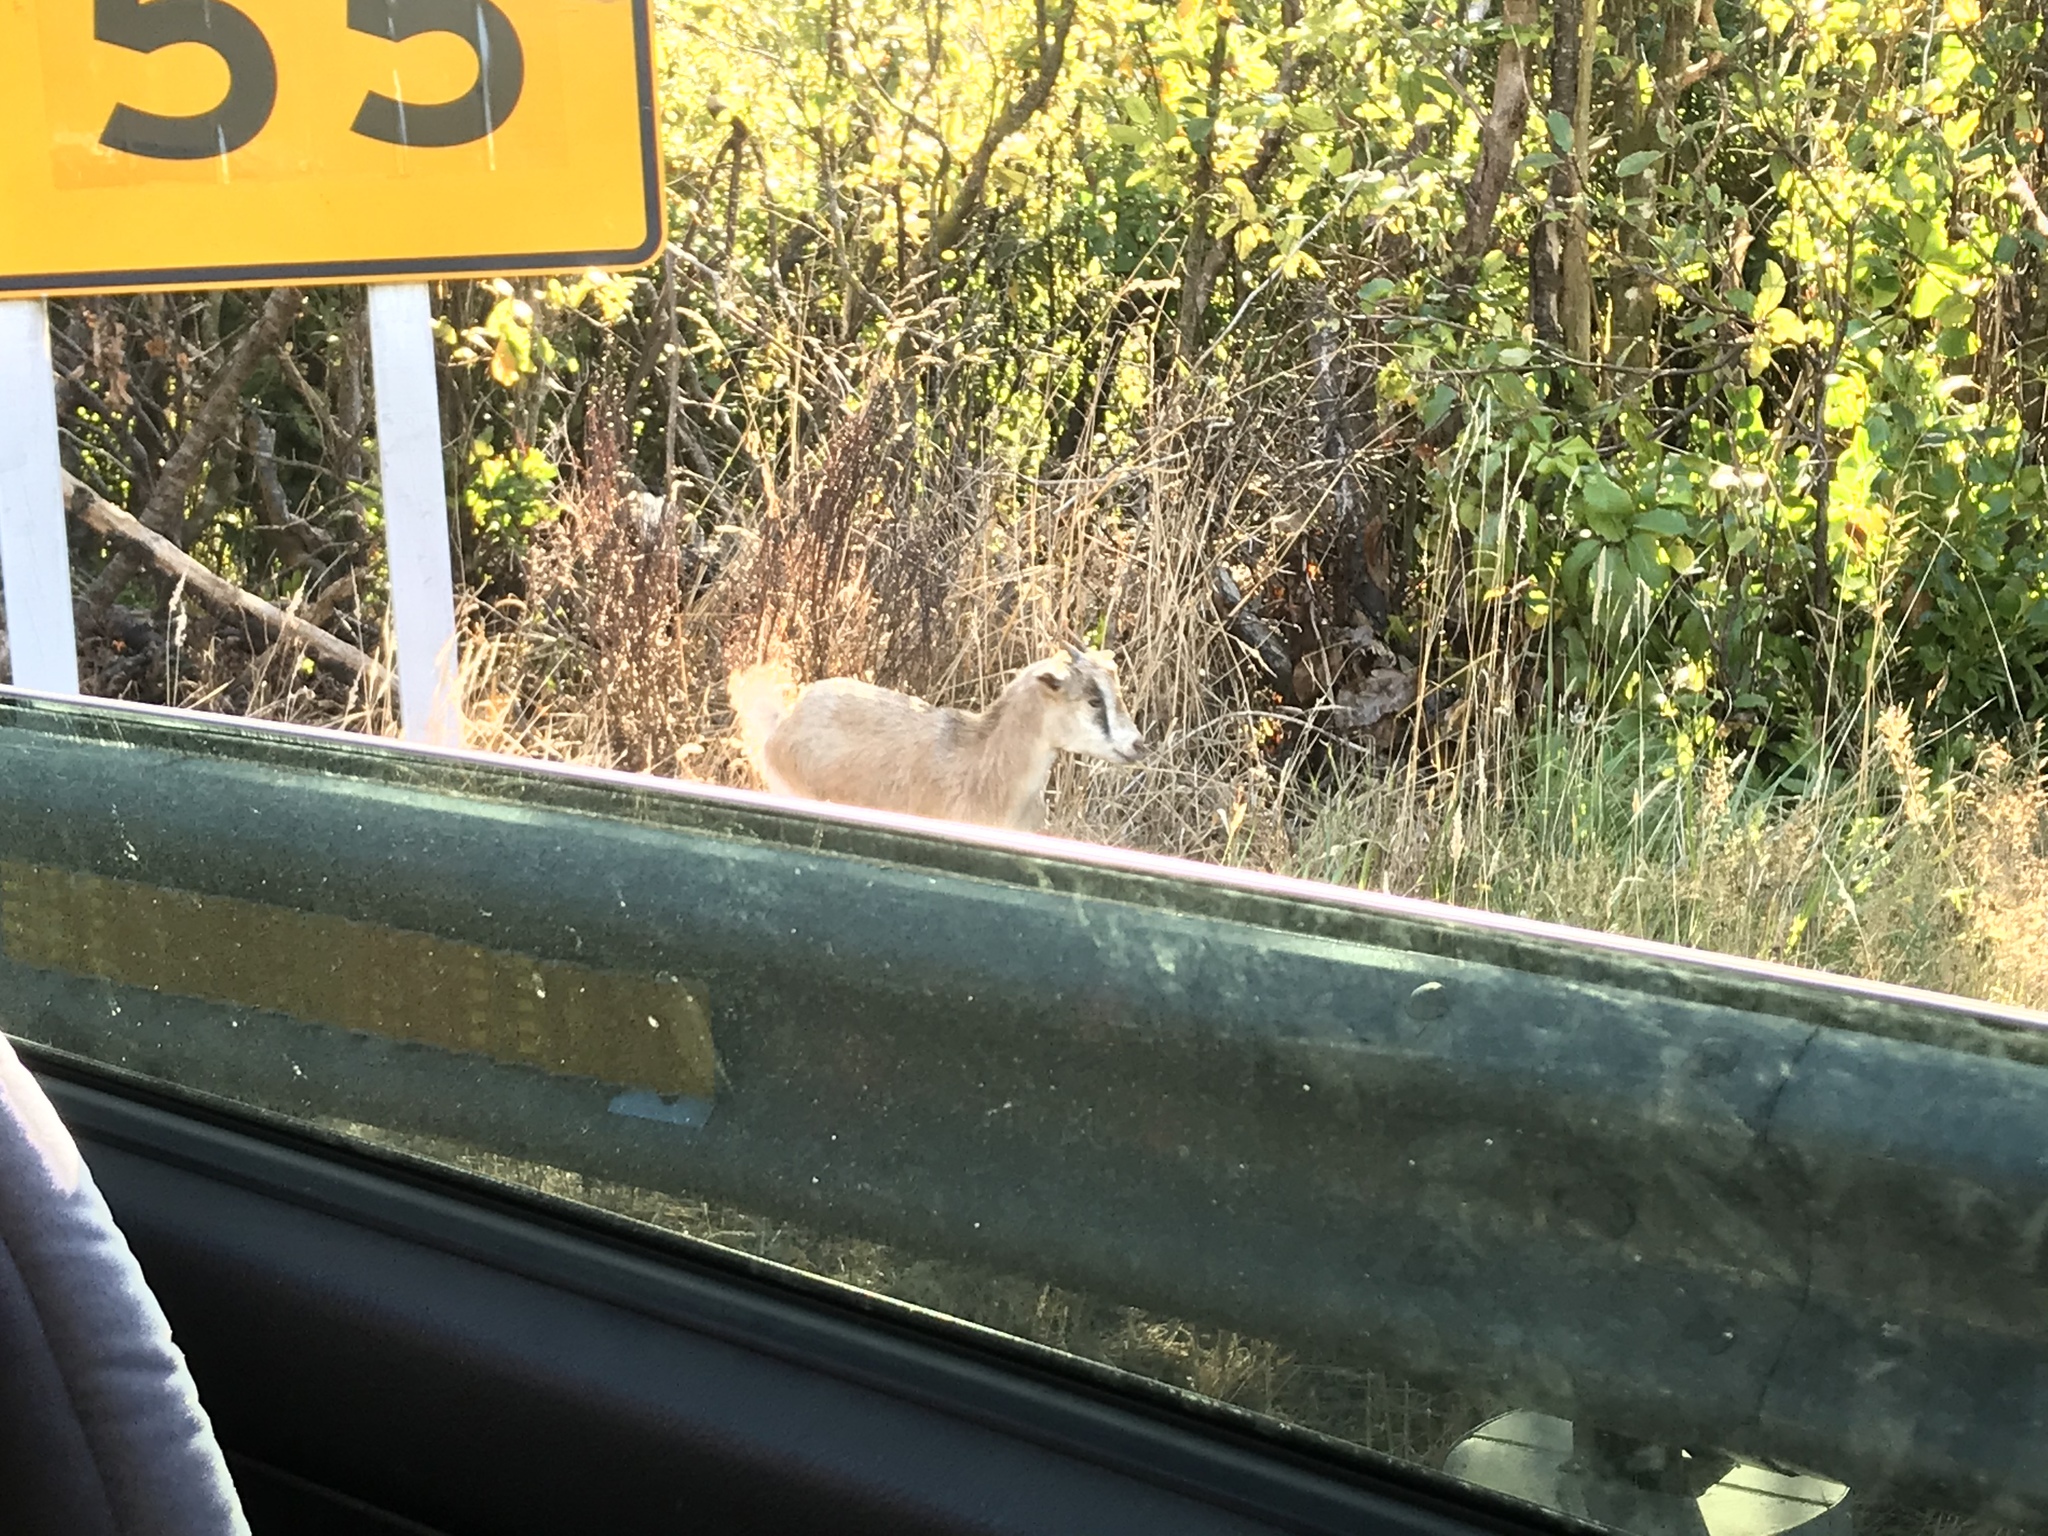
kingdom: Animalia
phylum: Chordata
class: Mammalia
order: Artiodactyla
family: Bovidae
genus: Capra
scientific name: Capra hircus
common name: Domestic goat
